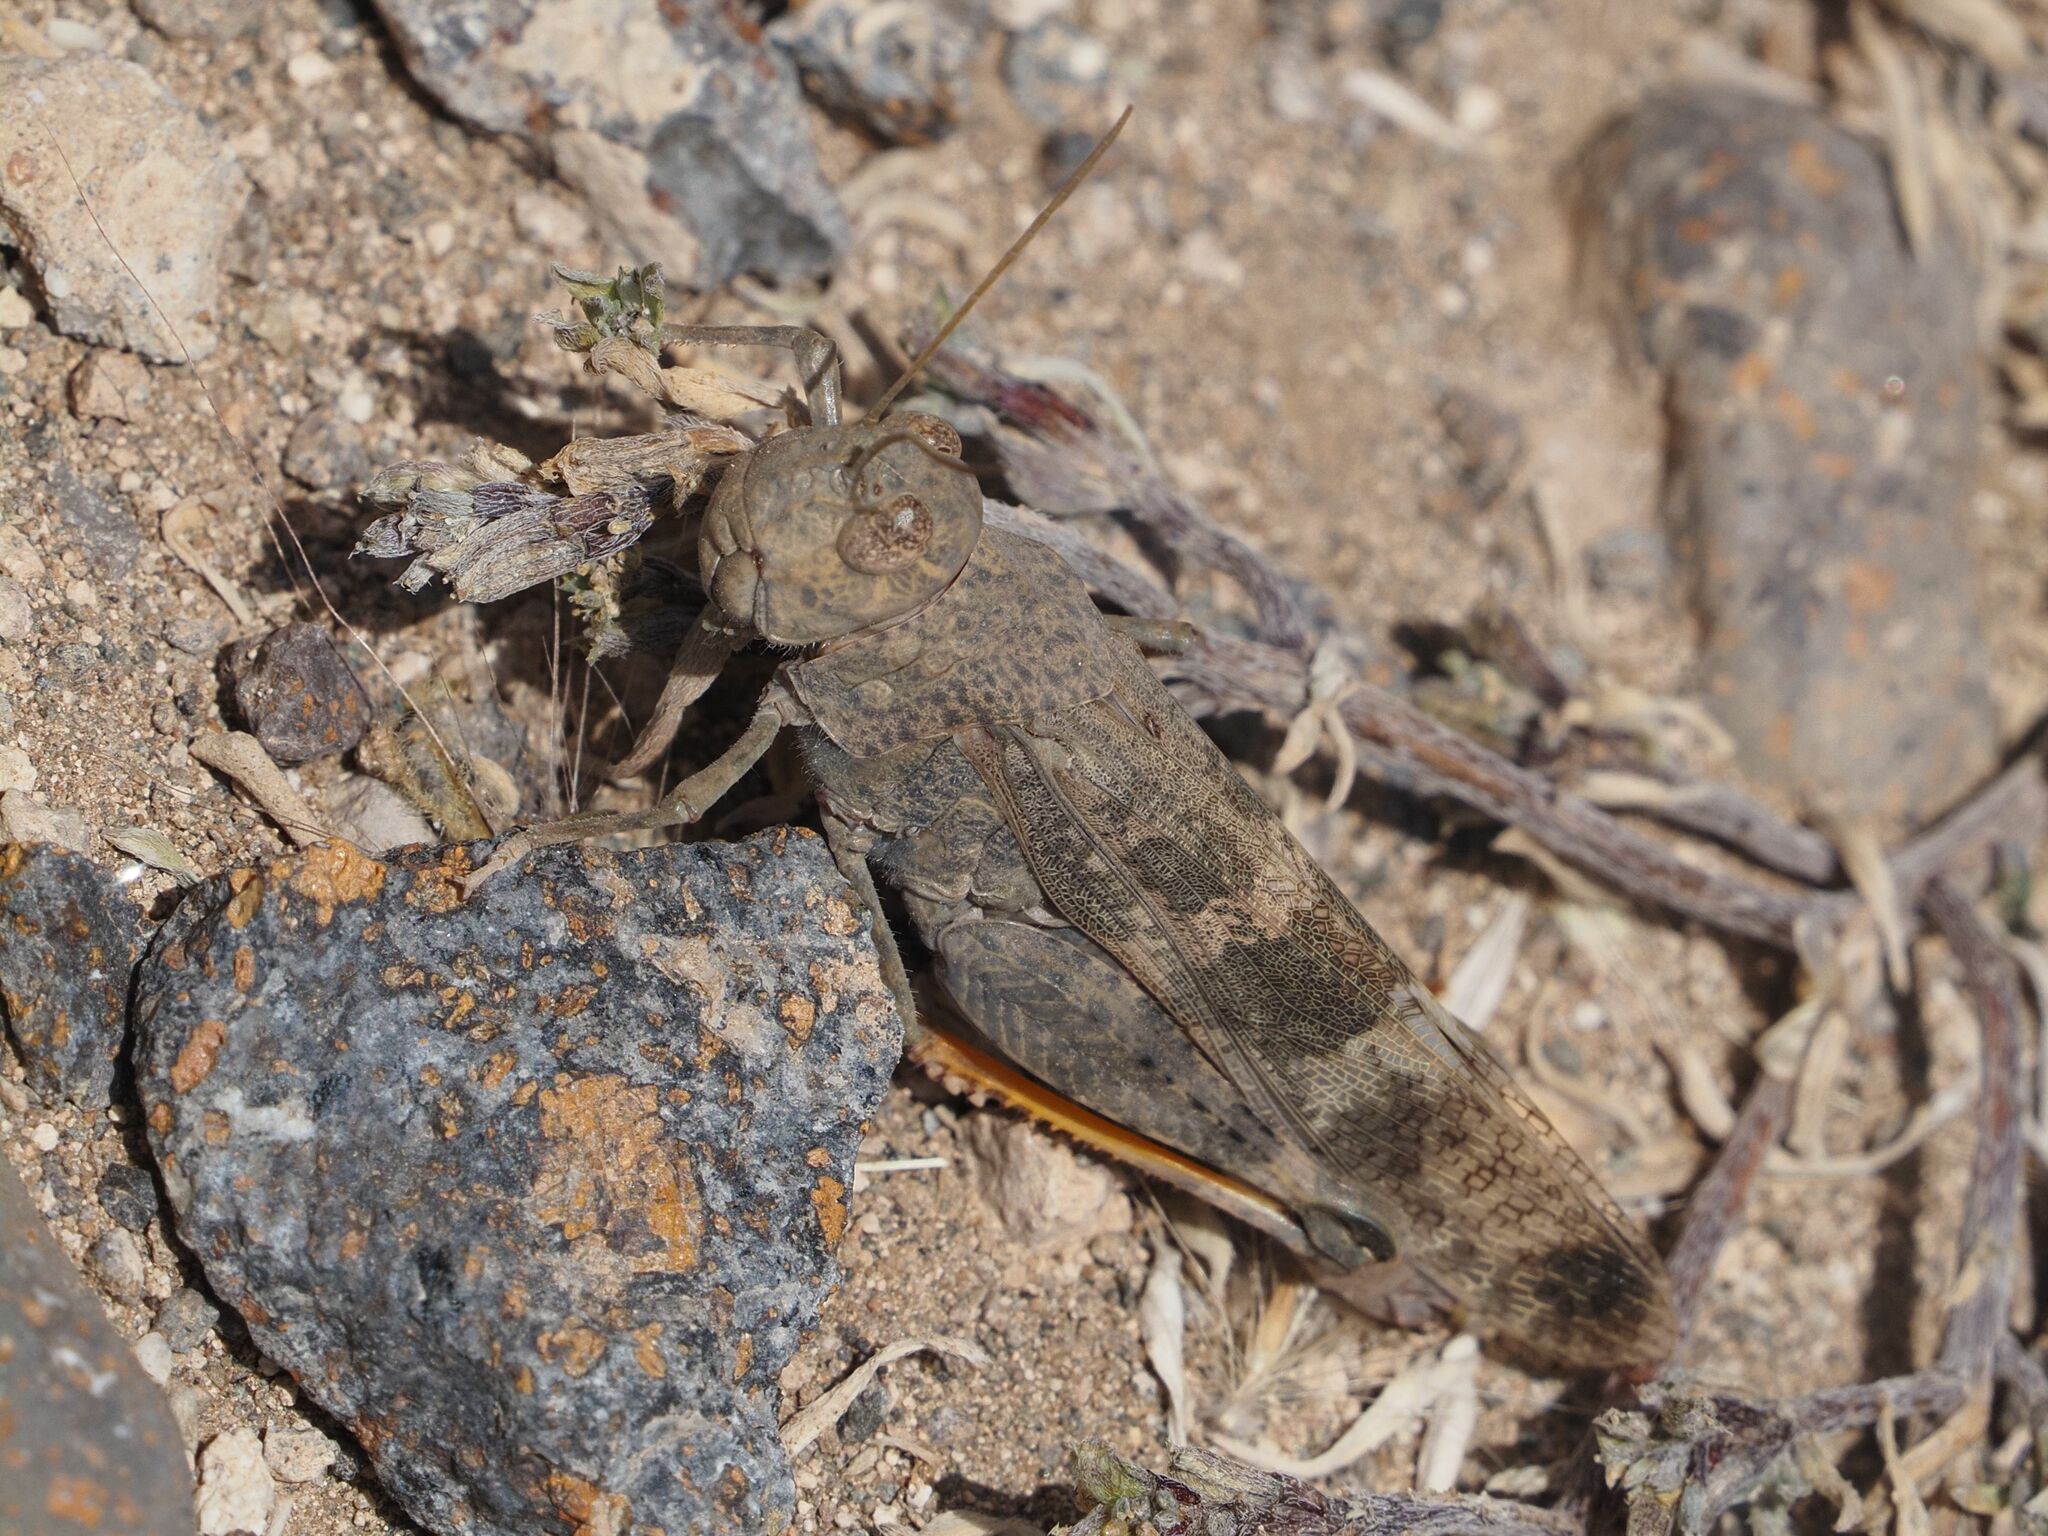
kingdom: Animalia
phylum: Arthropoda
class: Insecta
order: Orthoptera
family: Acrididae
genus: Scintharista
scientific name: Scintharista notabilis
